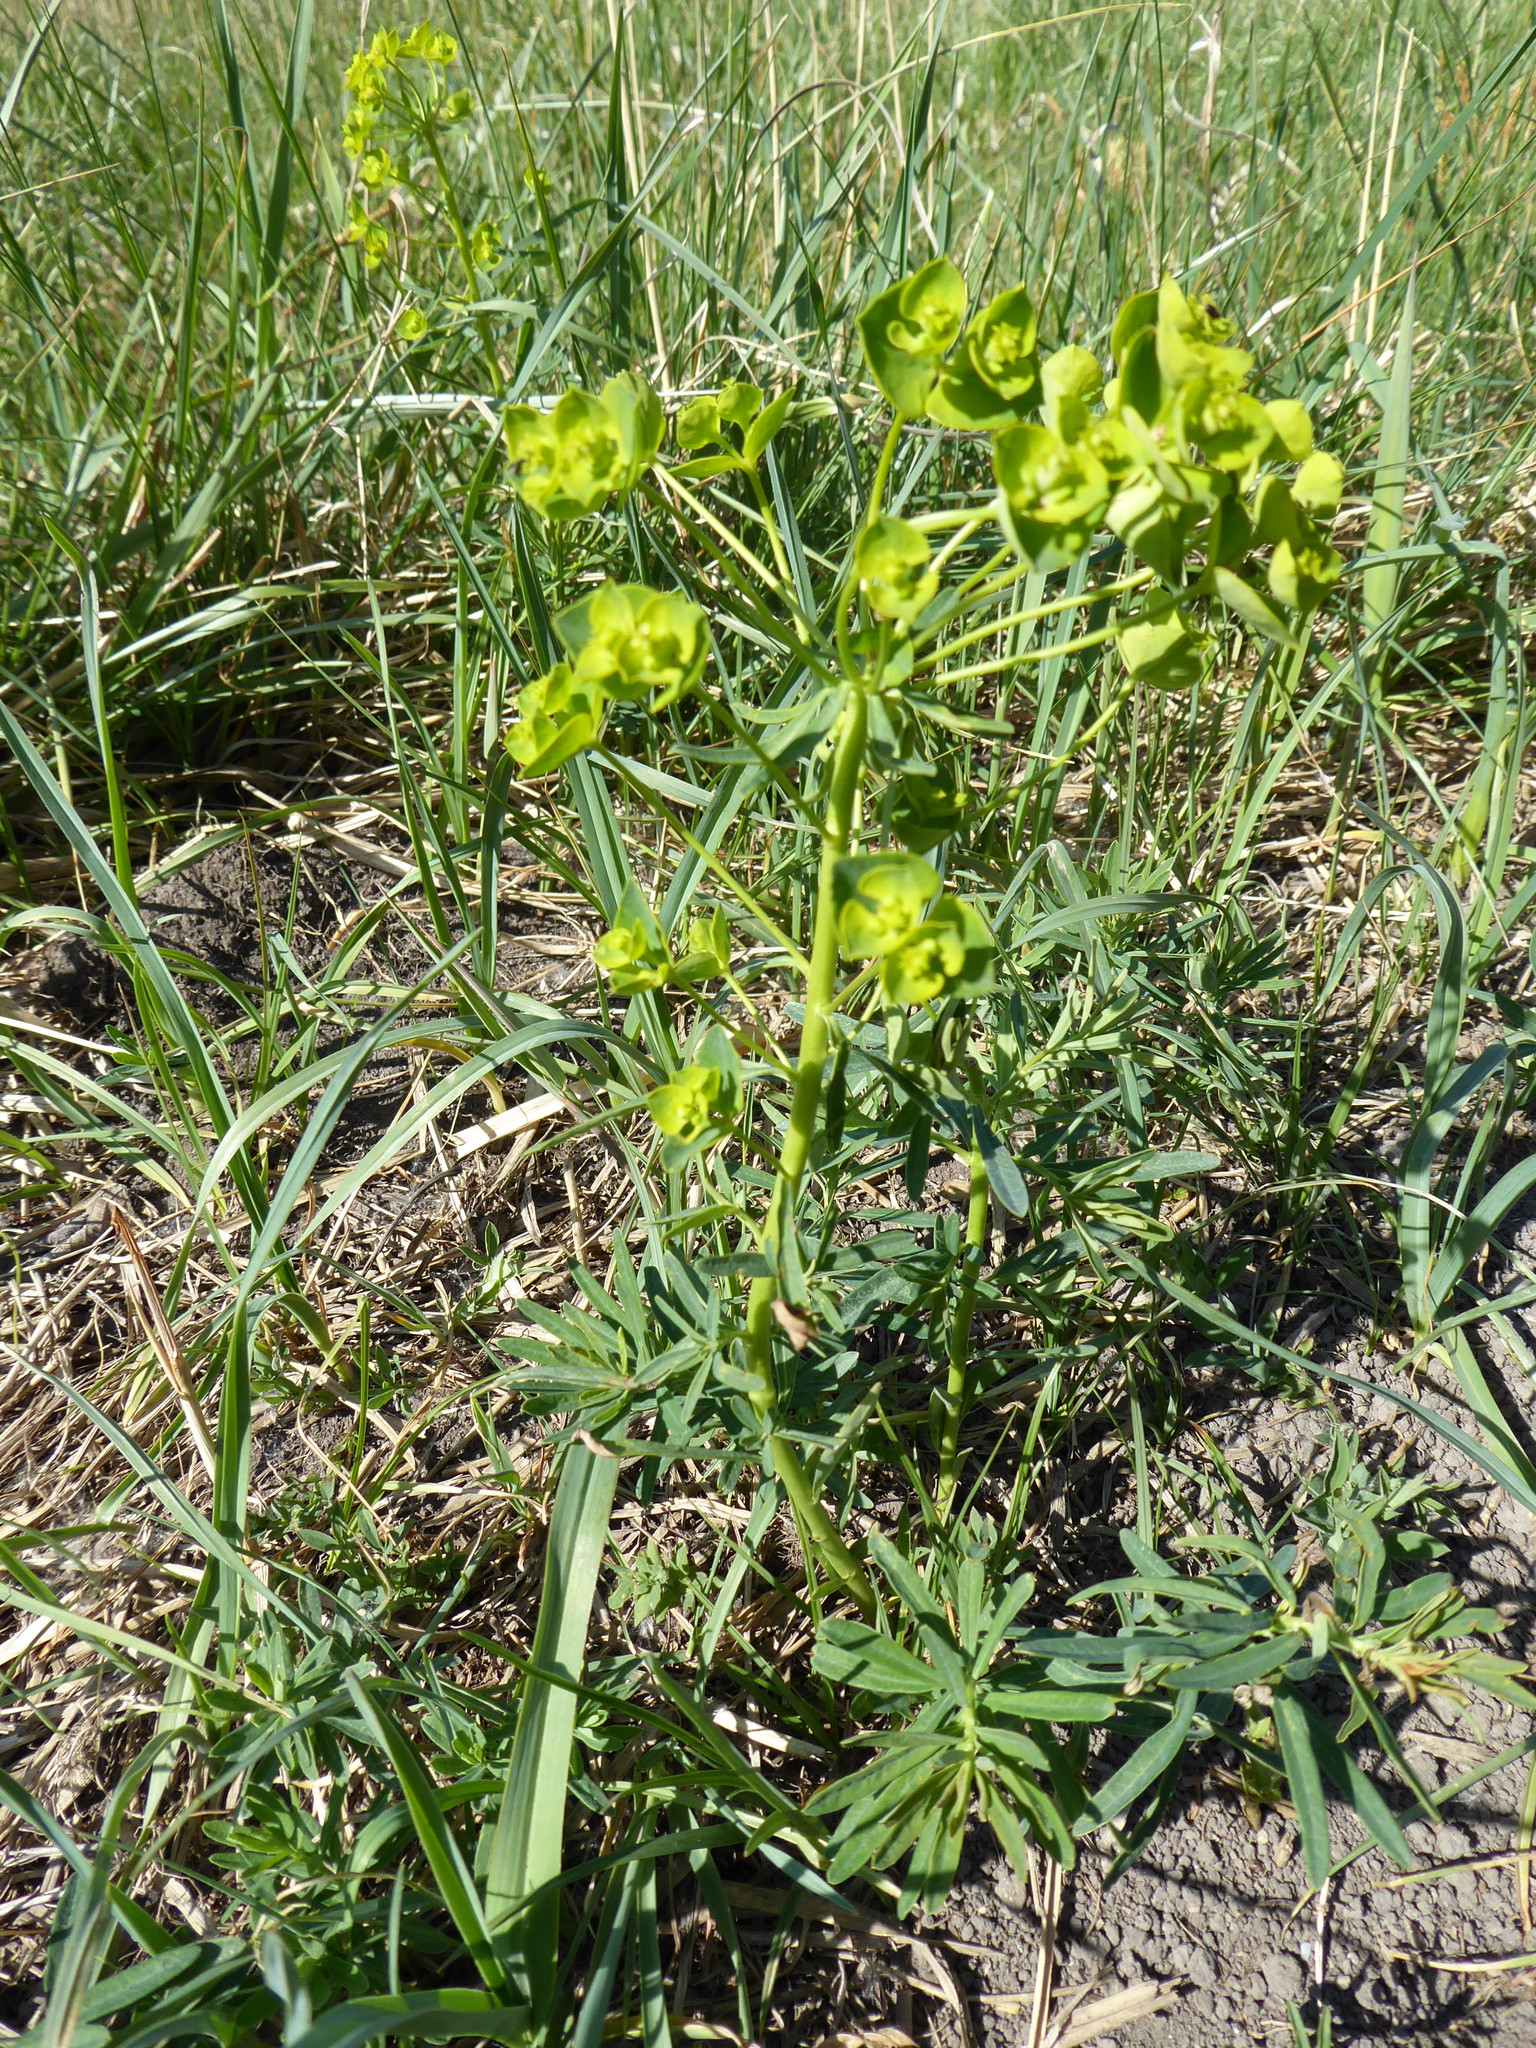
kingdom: Plantae
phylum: Tracheophyta
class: Magnoliopsida
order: Malpighiales
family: Euphorbiaceae
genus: Euphorbia
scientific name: Euphorbia esula
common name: Leafy spurge
